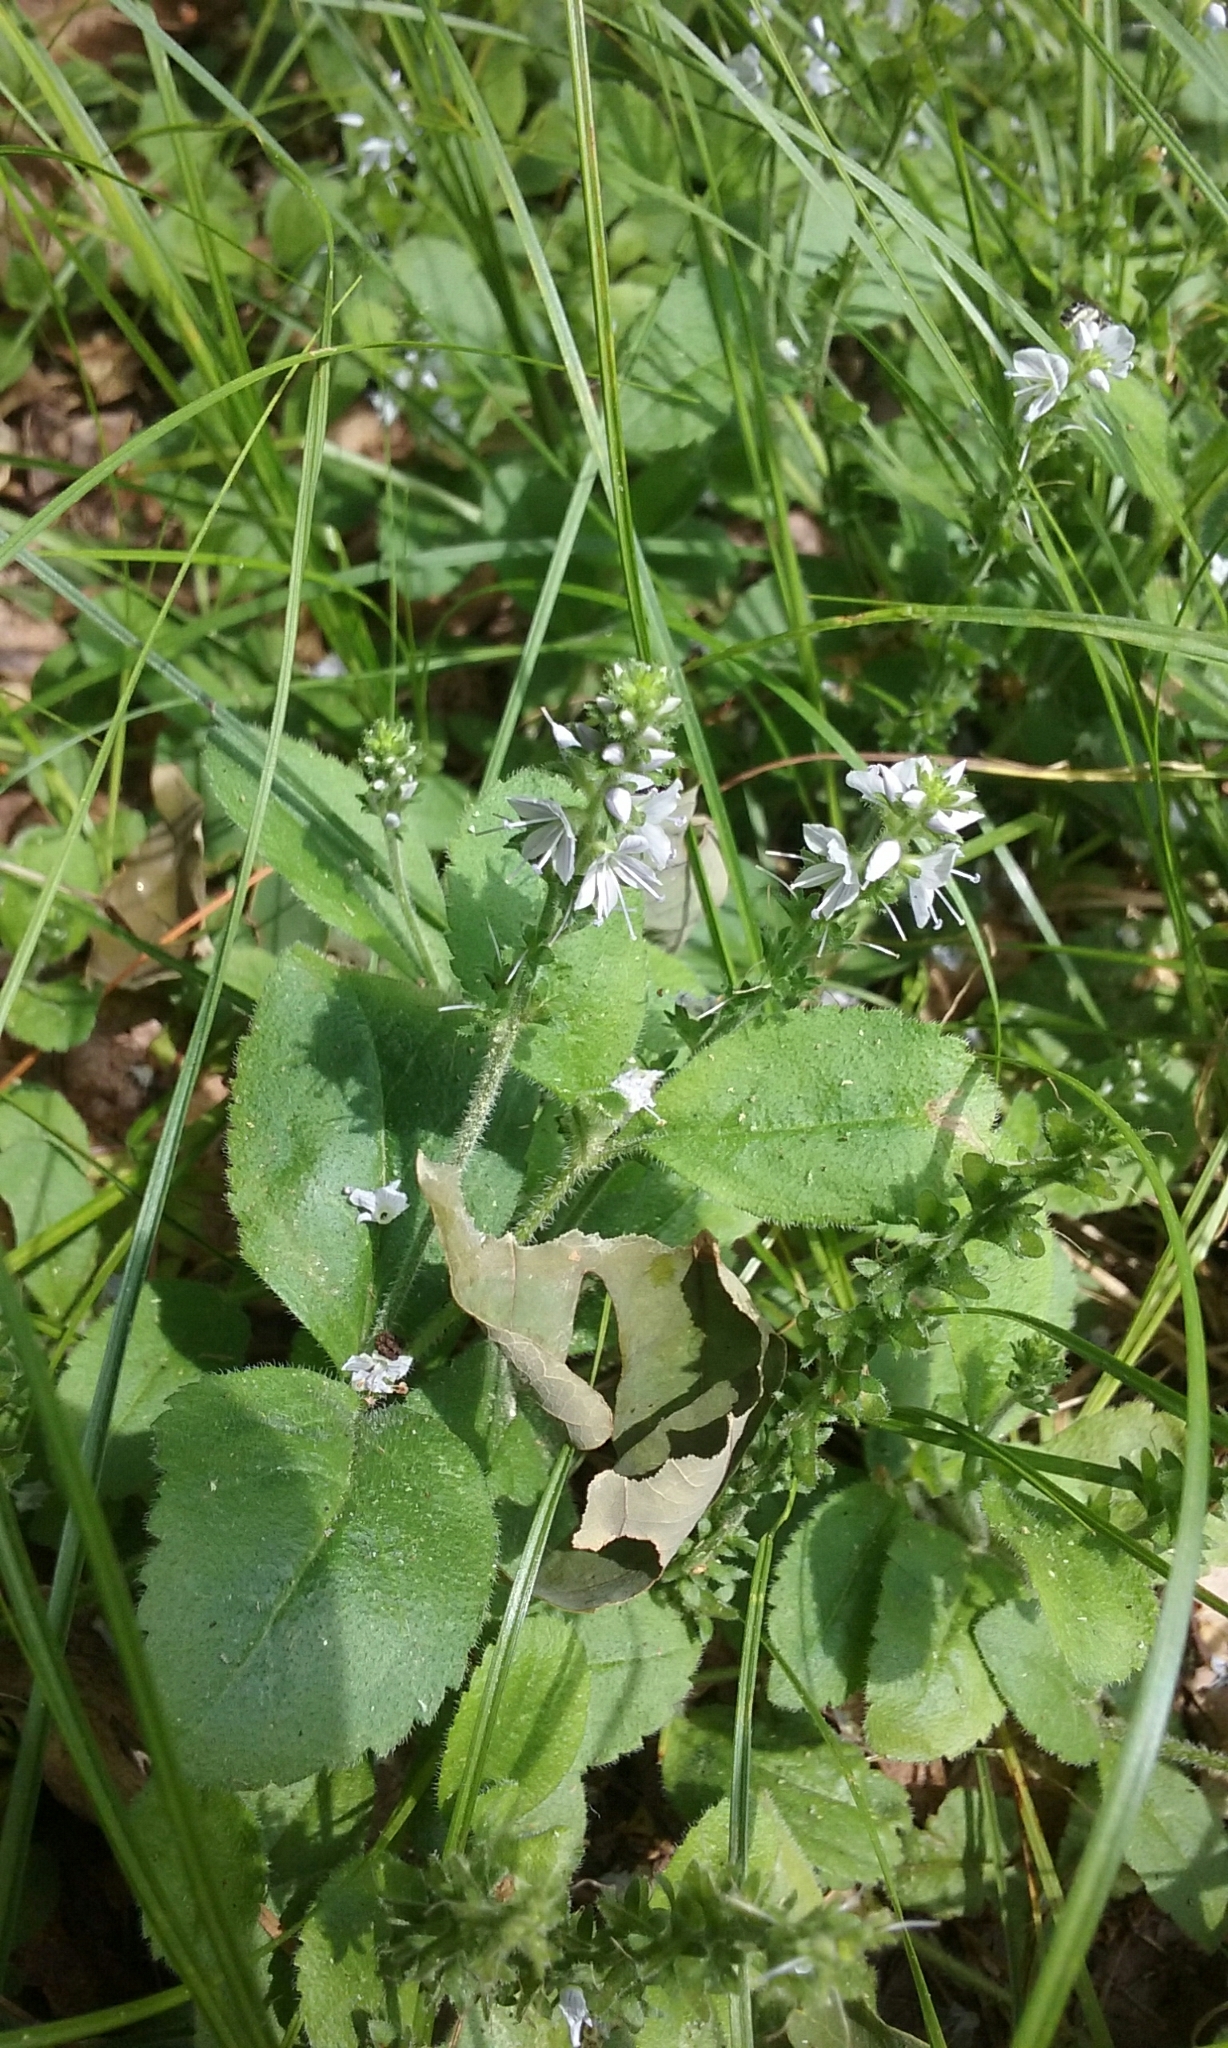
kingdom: Plantae
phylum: Tracheophyta
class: Magnoliopsida
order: Lamiales
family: Plantaginaceae
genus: Veronica
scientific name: Veronica officinalis
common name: Common speedwell
